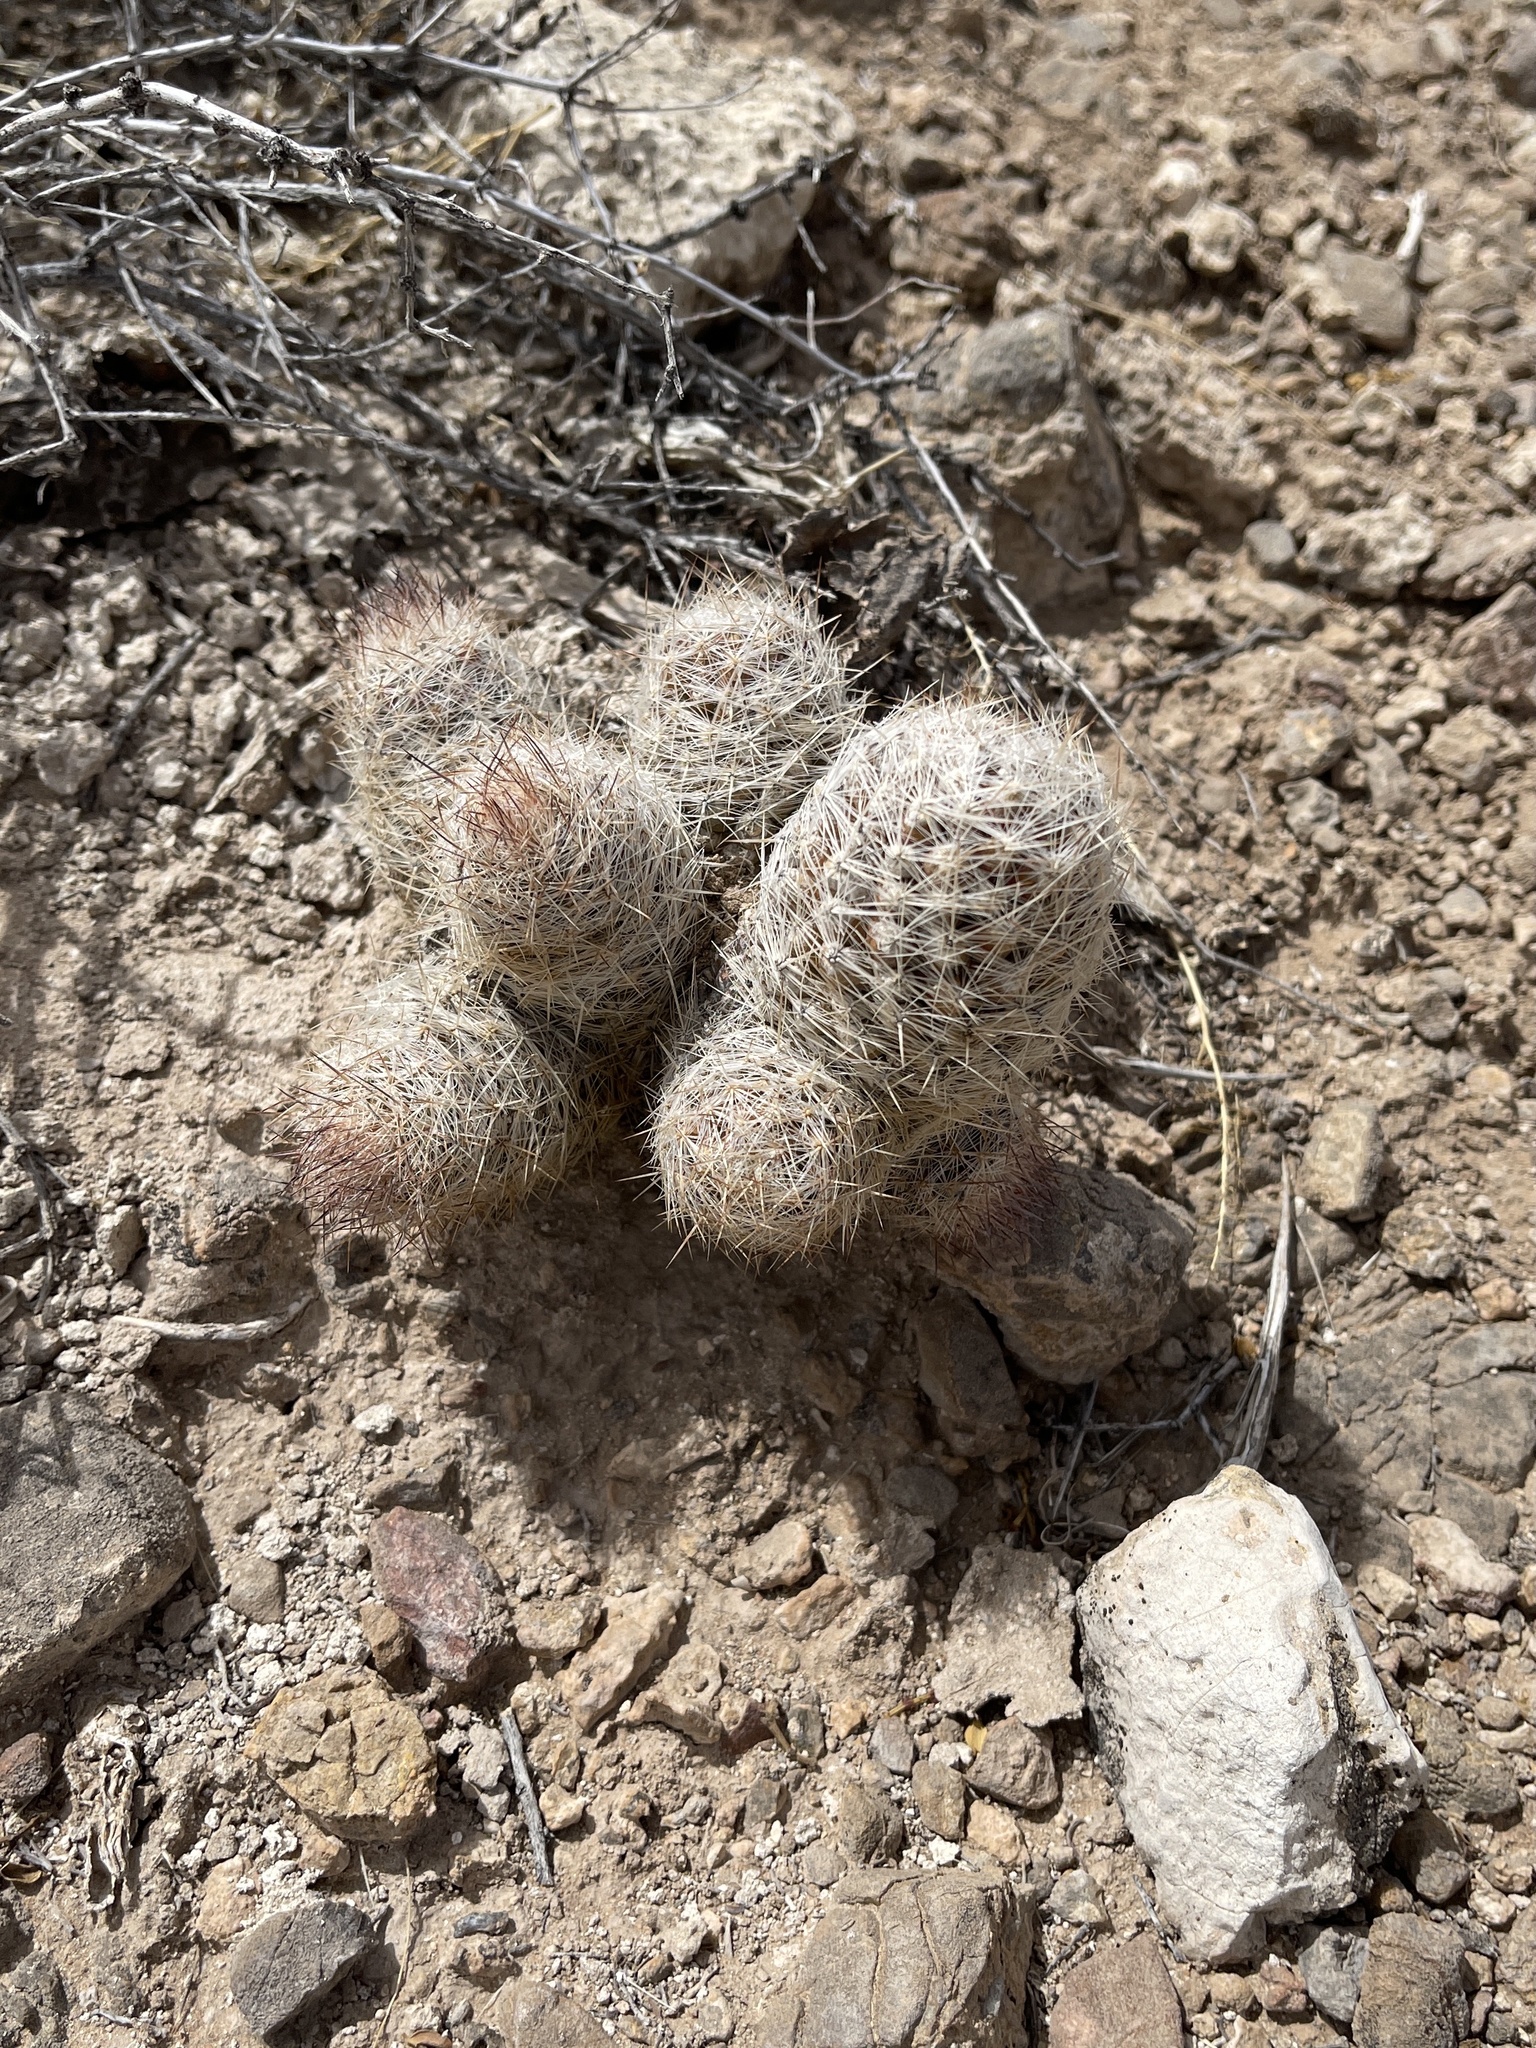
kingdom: Plantae
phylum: Tracheophyta
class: Magnoliopsida
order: Caryophyllales
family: Cactaceae
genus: Pelecyphora
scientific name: Pelecyphora tuberculosa
